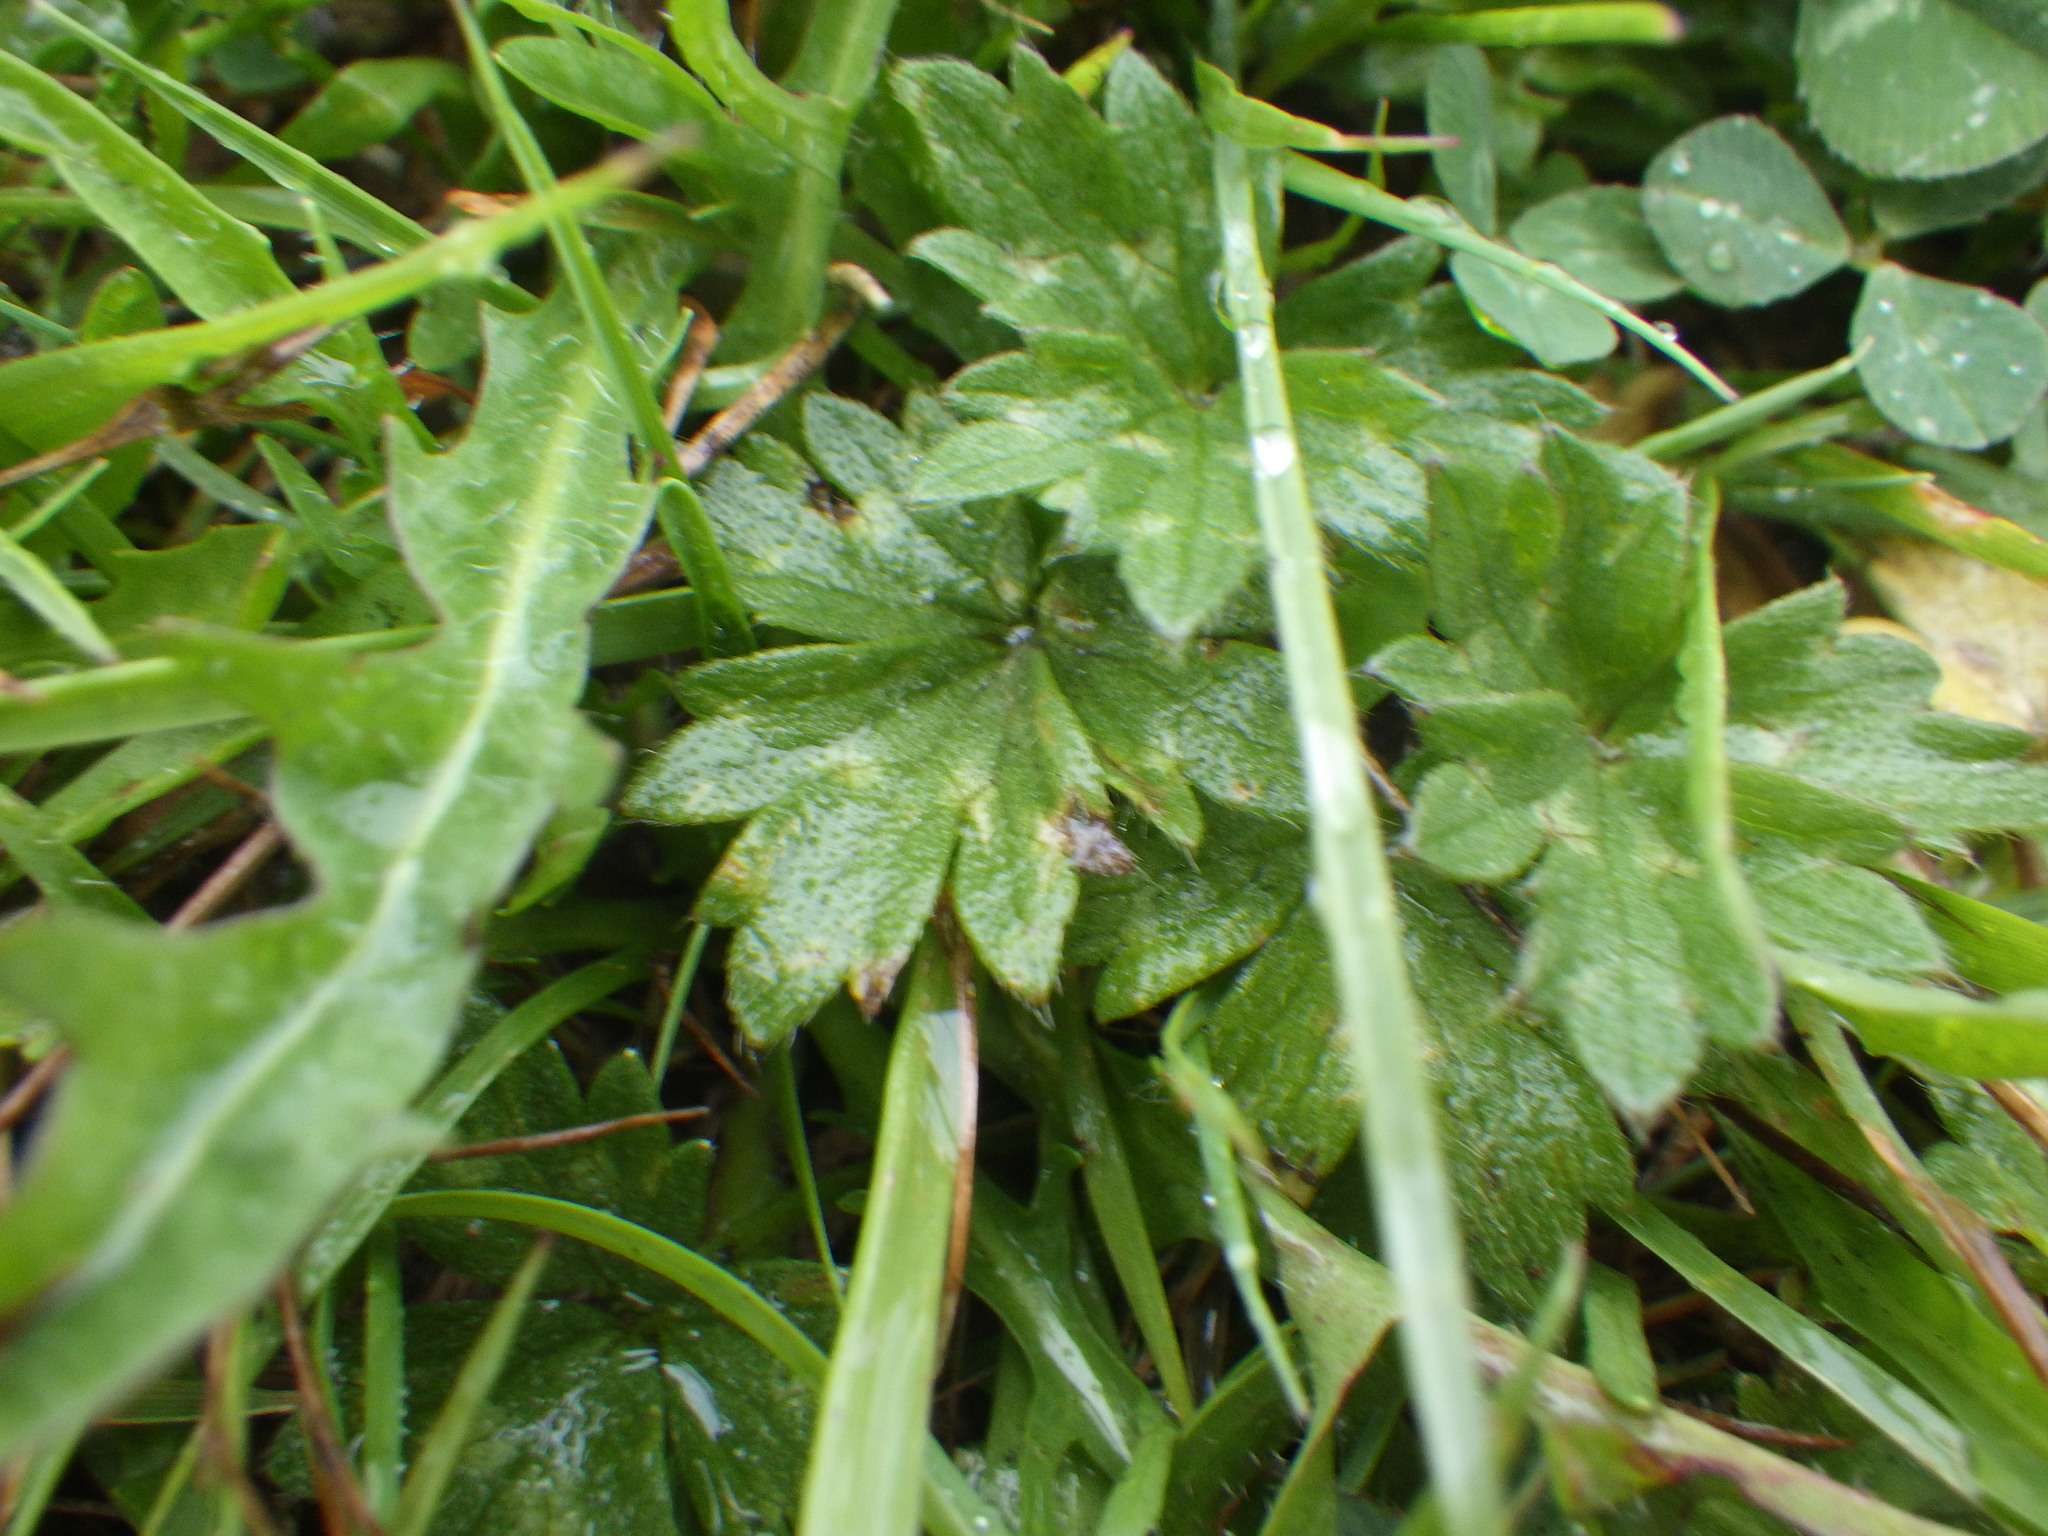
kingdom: Plantae
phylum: Tracheophyta
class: Magnoliopsida
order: Ranunculales
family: Ranunculaceae
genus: Ranunculus
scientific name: Ranunculus repens
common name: Creeping buttercup
